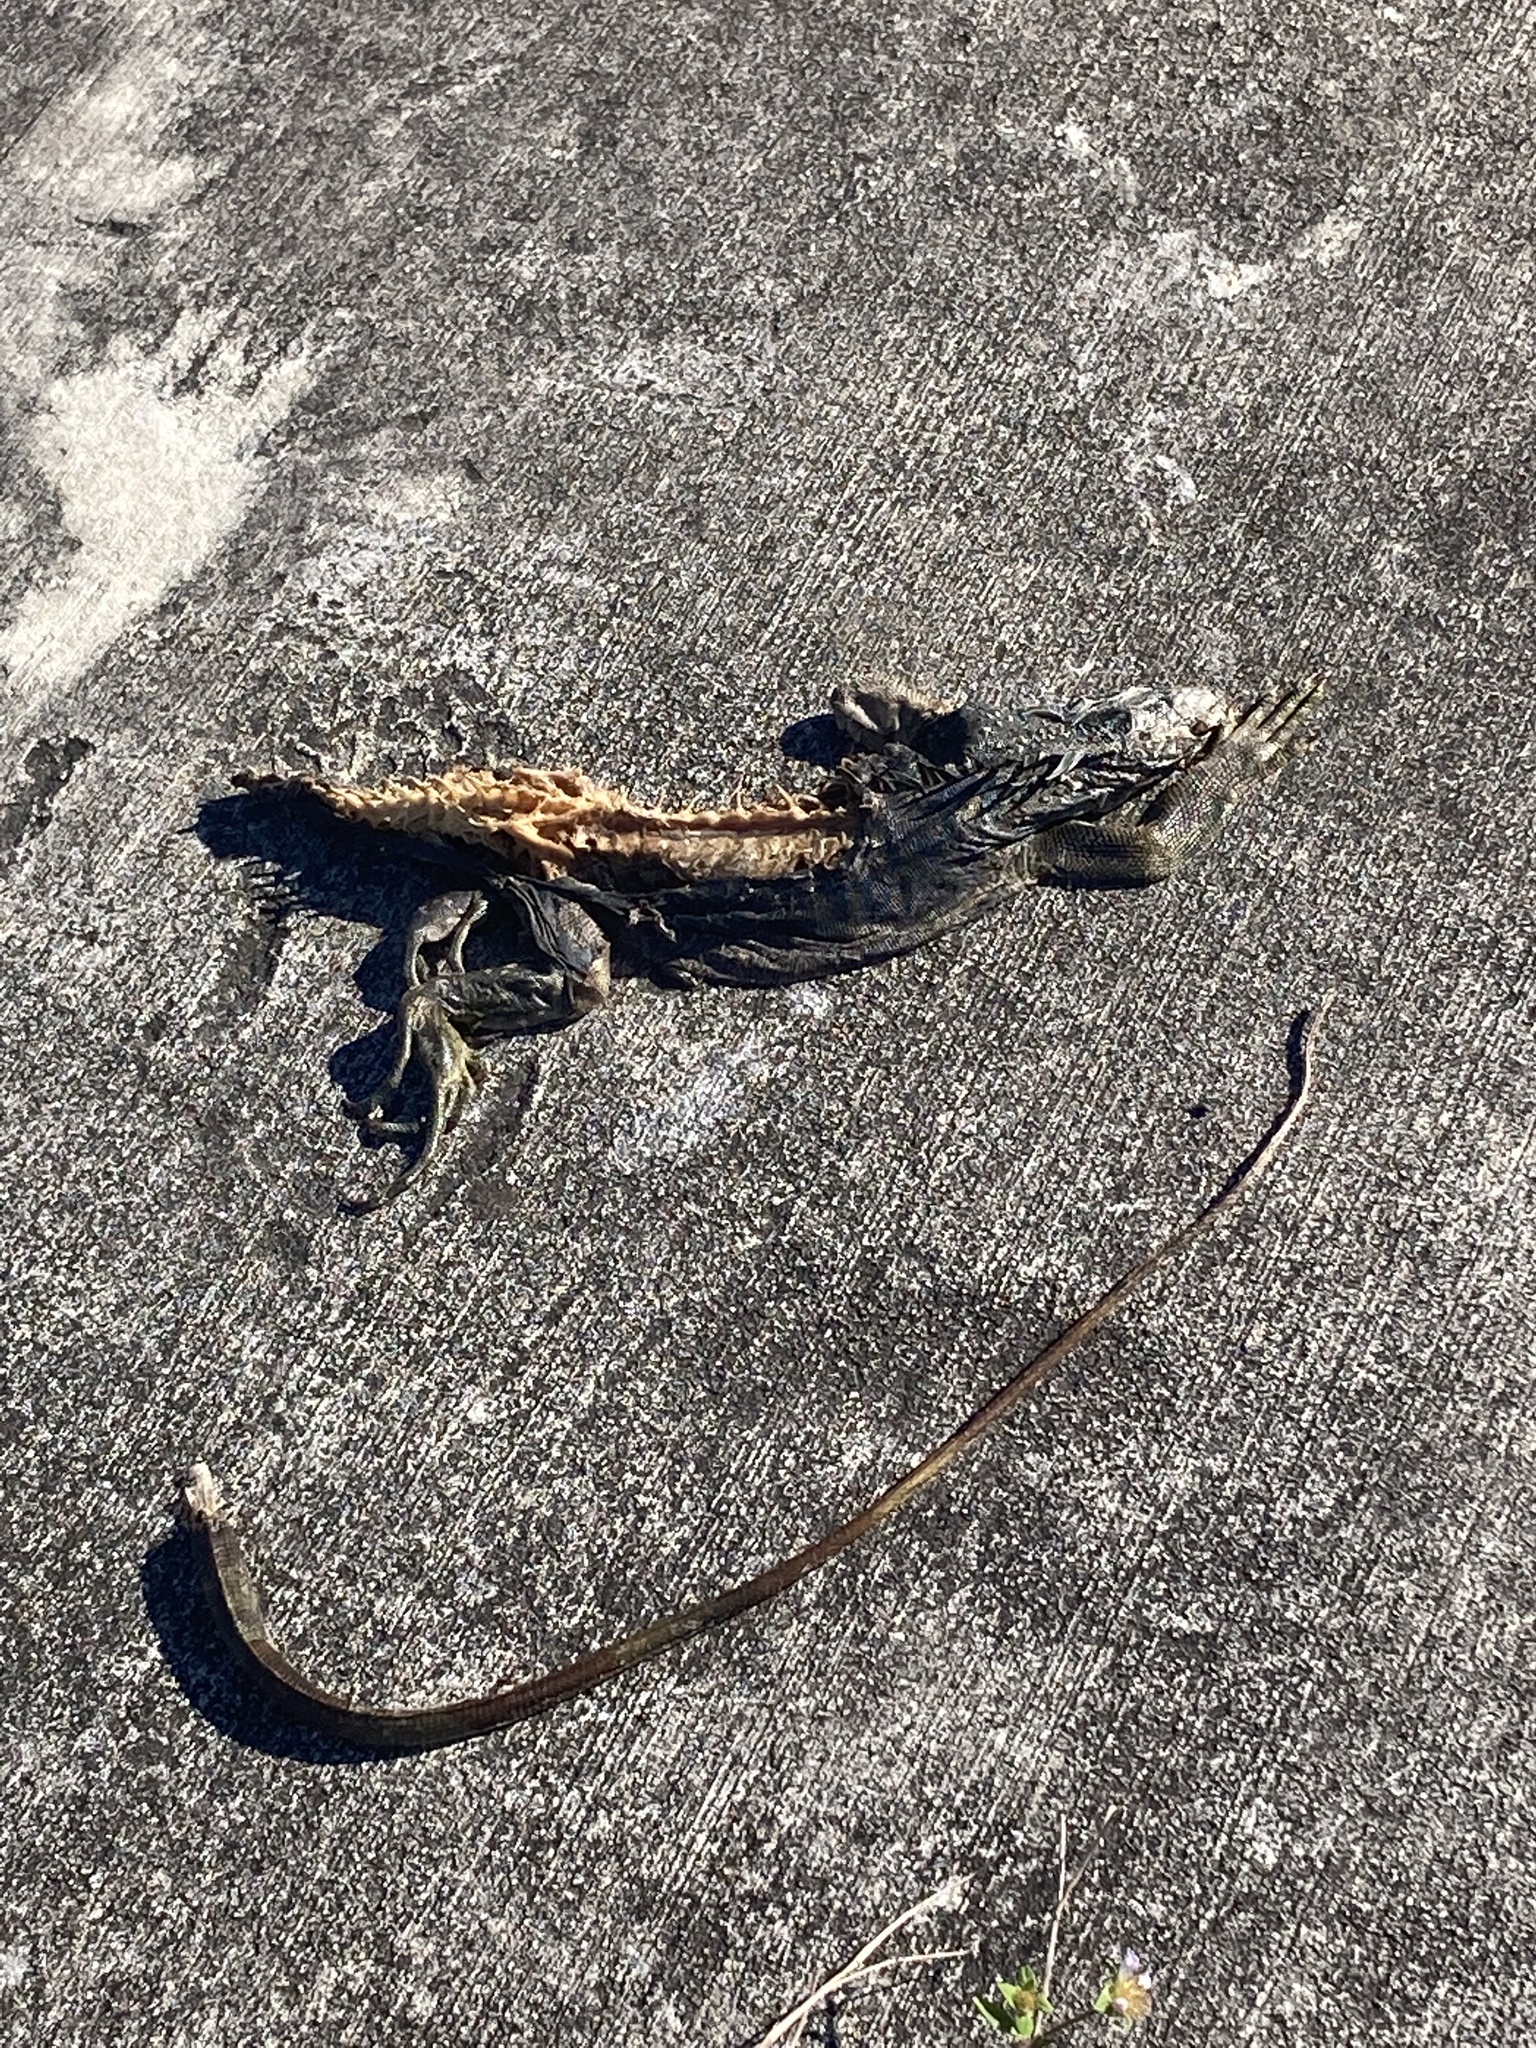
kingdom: Animalia
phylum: Chordata
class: Squamata
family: Iguanidae
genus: Iguana
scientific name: Iguana iguana
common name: Green iguana
